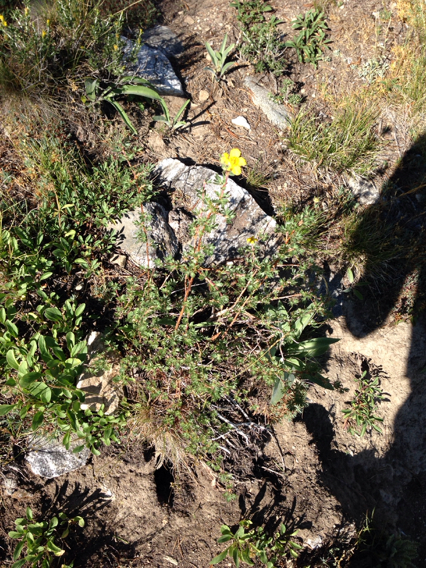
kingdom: Plantae
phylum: Tracheophyta
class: Magnoliopsida
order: Rosales
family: Rosaceae
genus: Dasiphora
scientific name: Dasiphora fruticosa
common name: Shrubby cinquefoil
